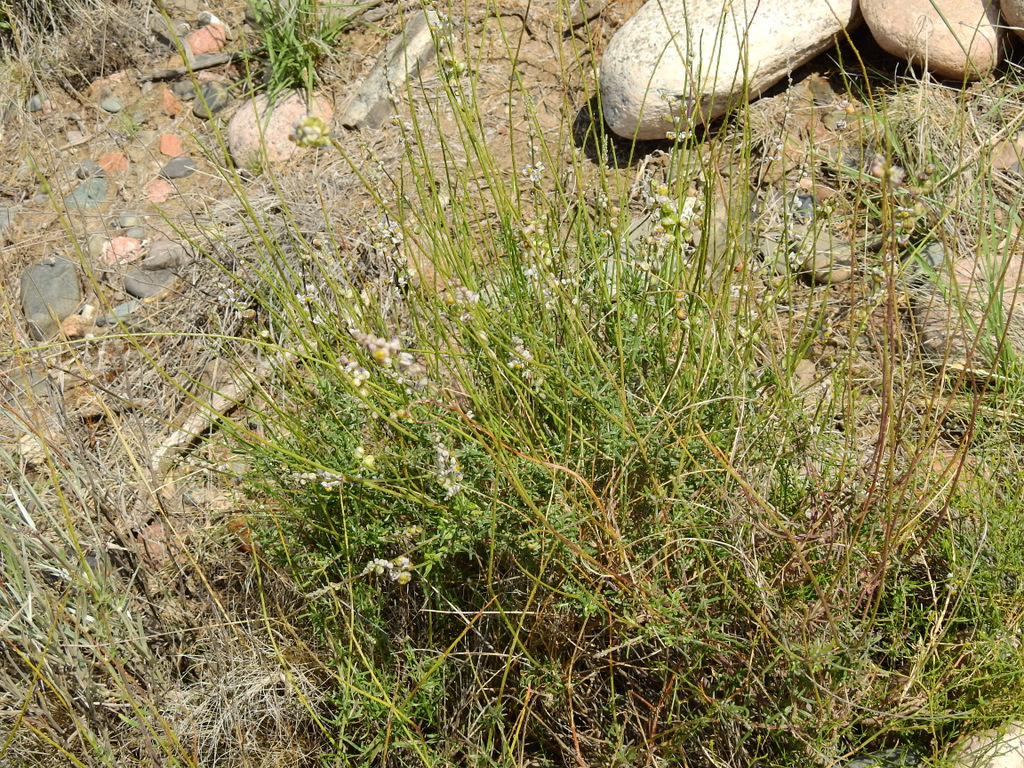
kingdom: Plantae
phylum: Tracheophyta
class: Magnoliopsida
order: Fabales
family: Polygalaceae
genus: Monnina
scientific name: Monnina dictyocarpa
